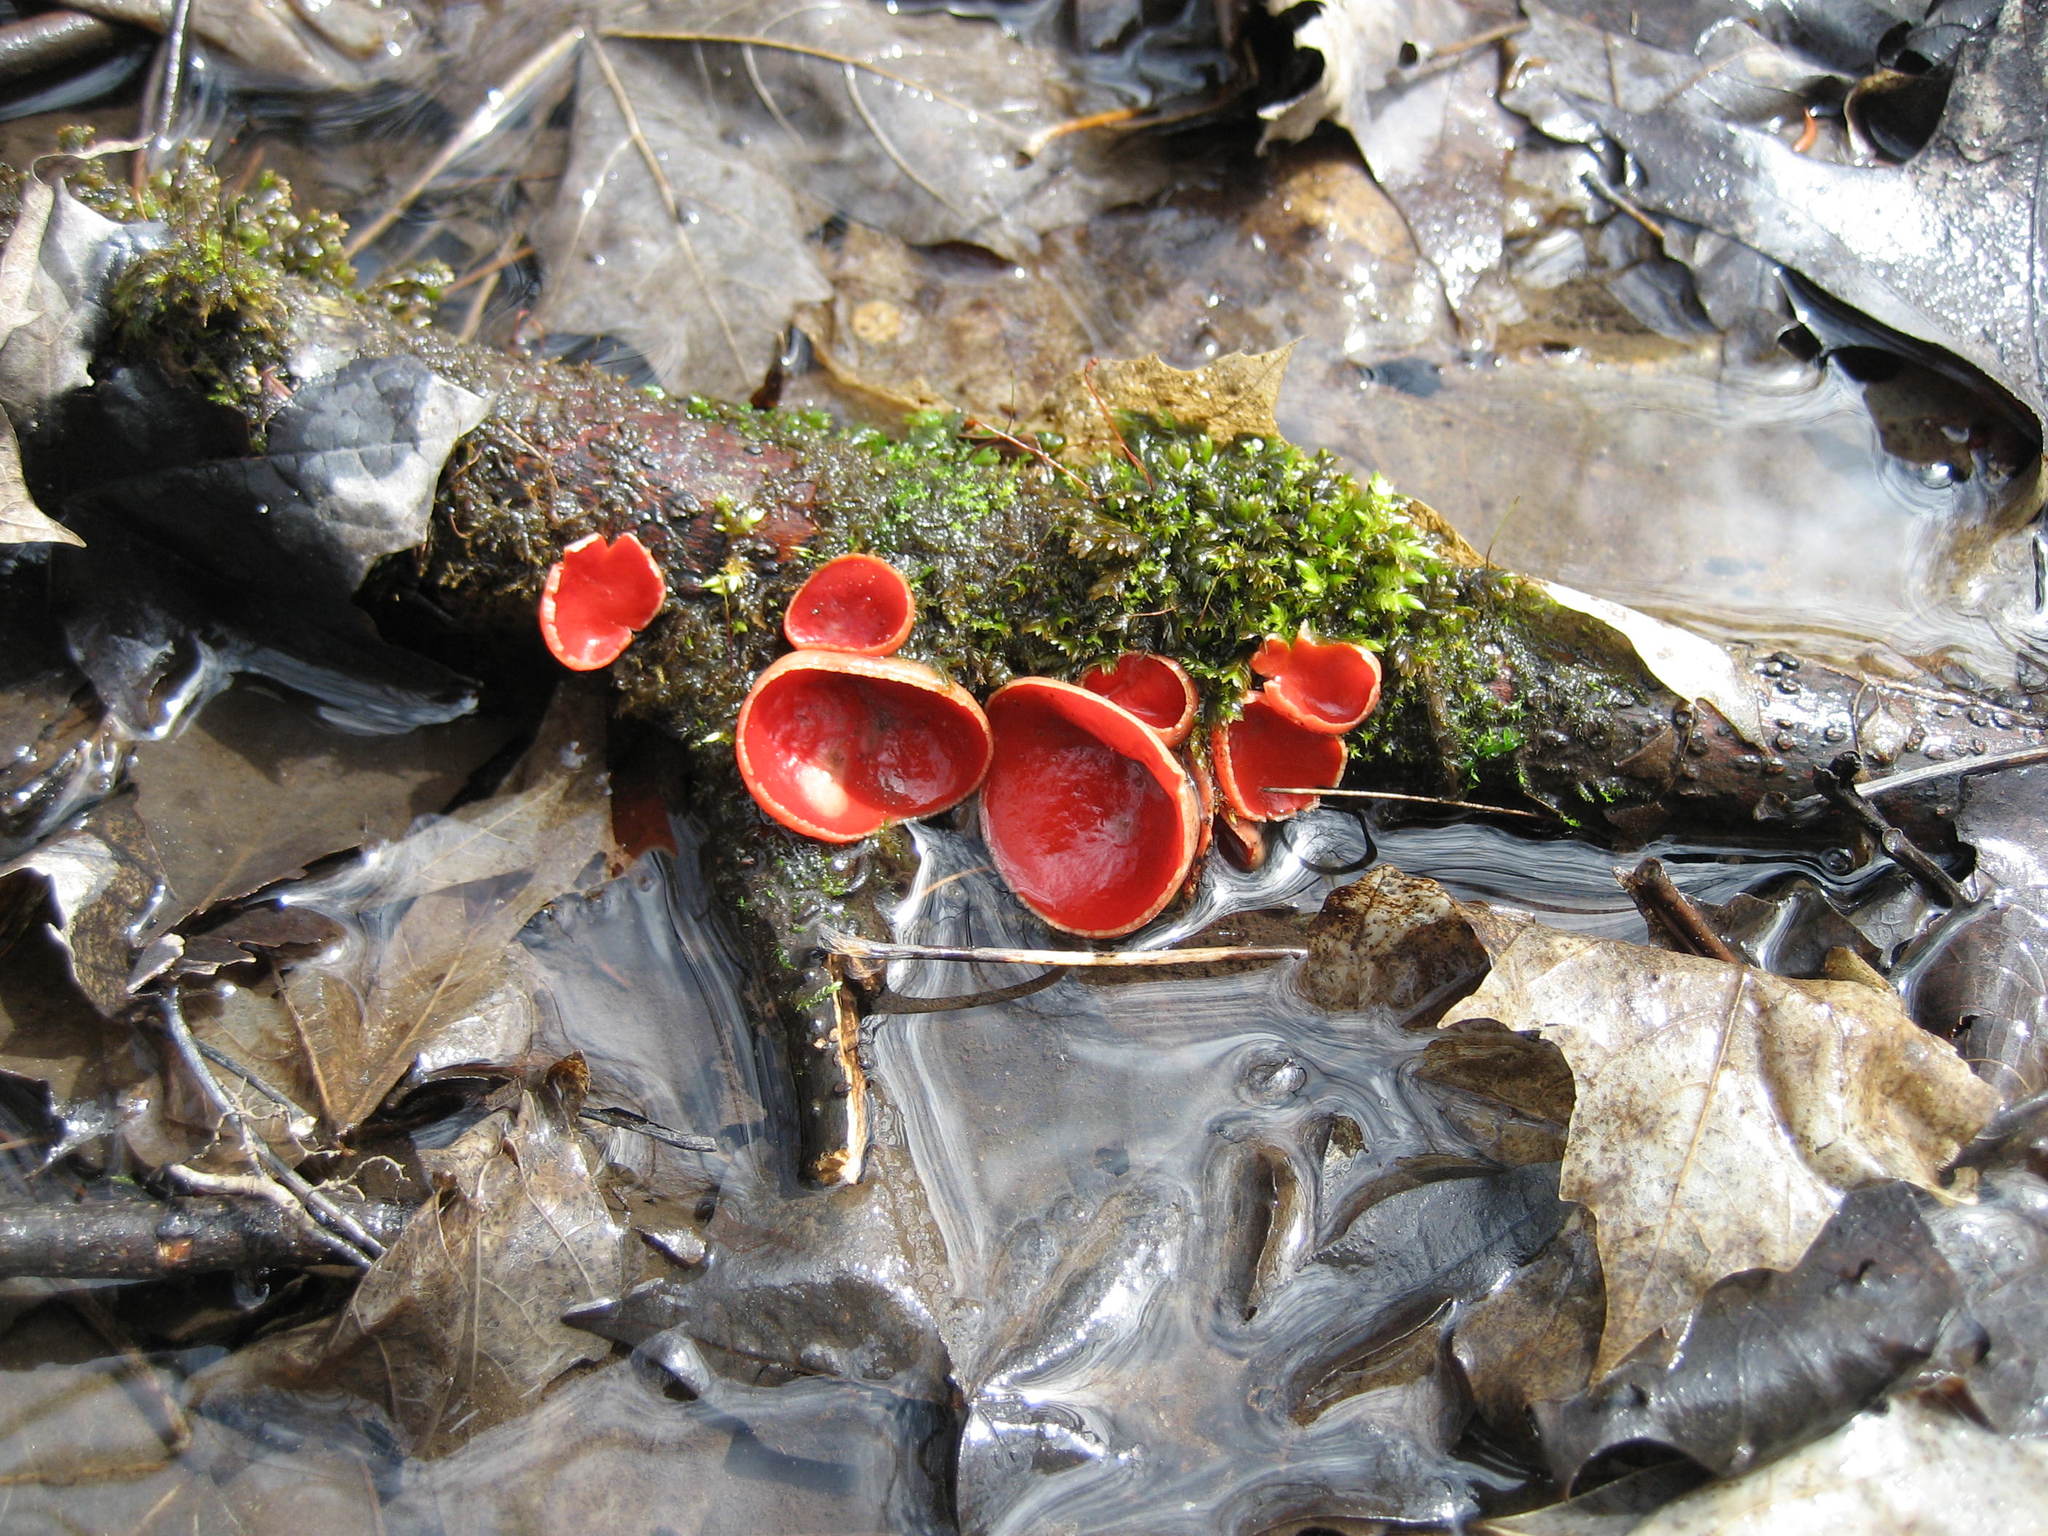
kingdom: Fungi
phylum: Ascomycota
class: Pezizomycetes
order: Pezizales
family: Sarcoscyphaceae
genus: Sarcoscypha
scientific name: Sarcoscypha
